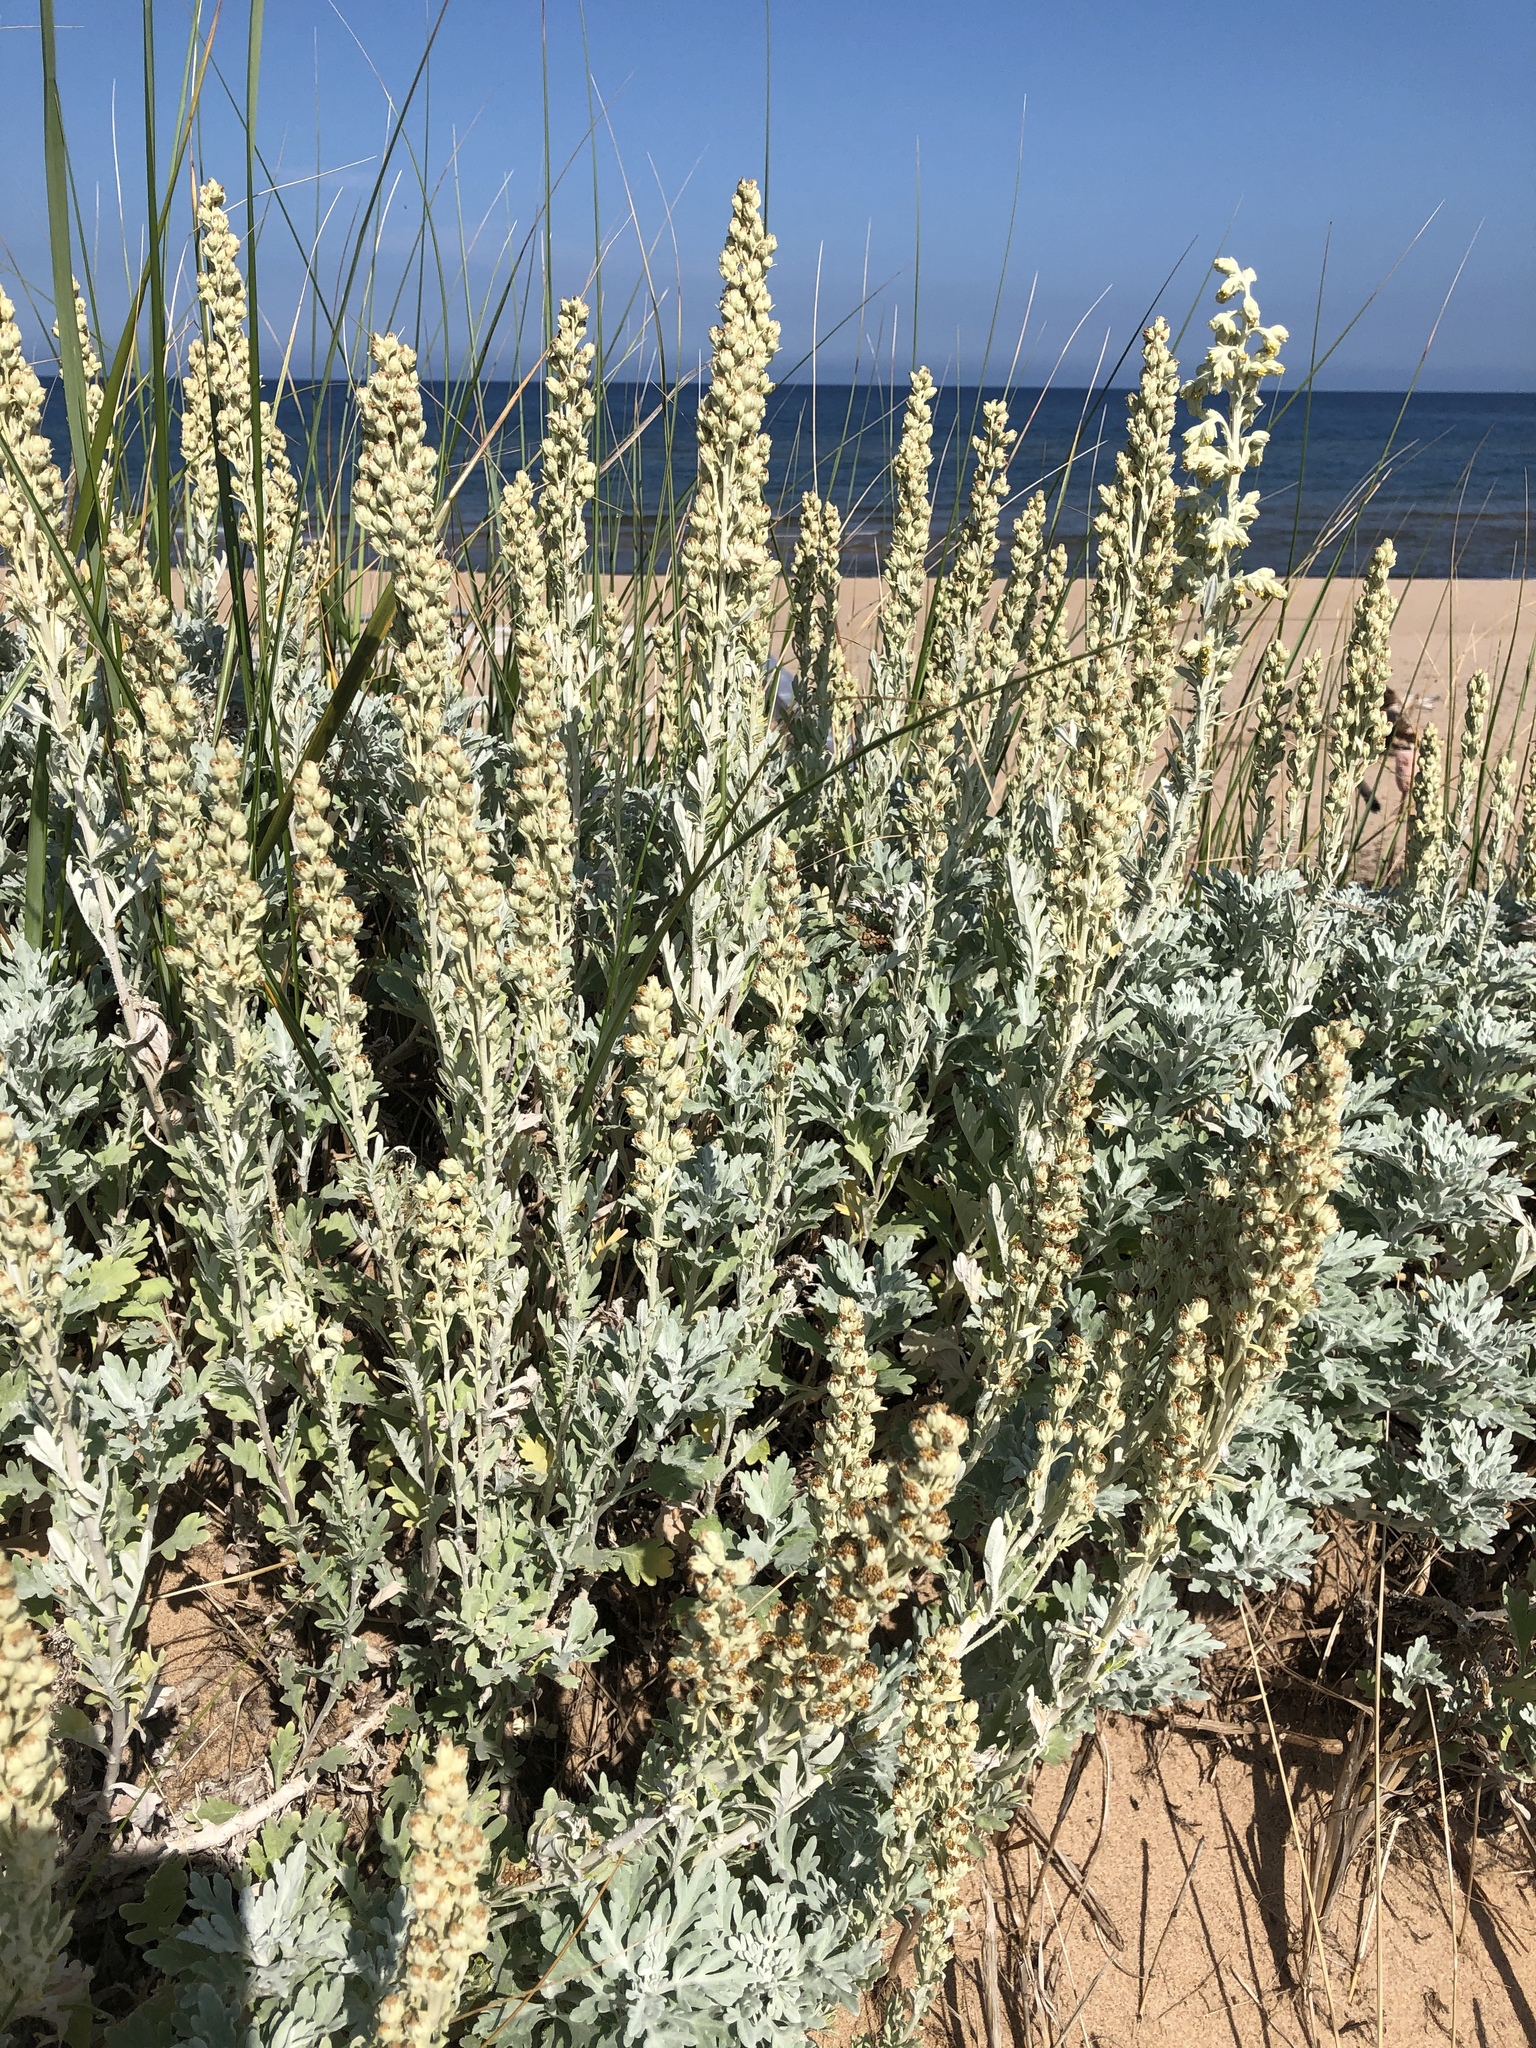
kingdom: Plantae
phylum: Tracheophyta
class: Magnoliopsida
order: Asterales
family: Asteraceae
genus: Artemisia
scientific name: Artemisia stelleriana
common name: Beach wormwood
